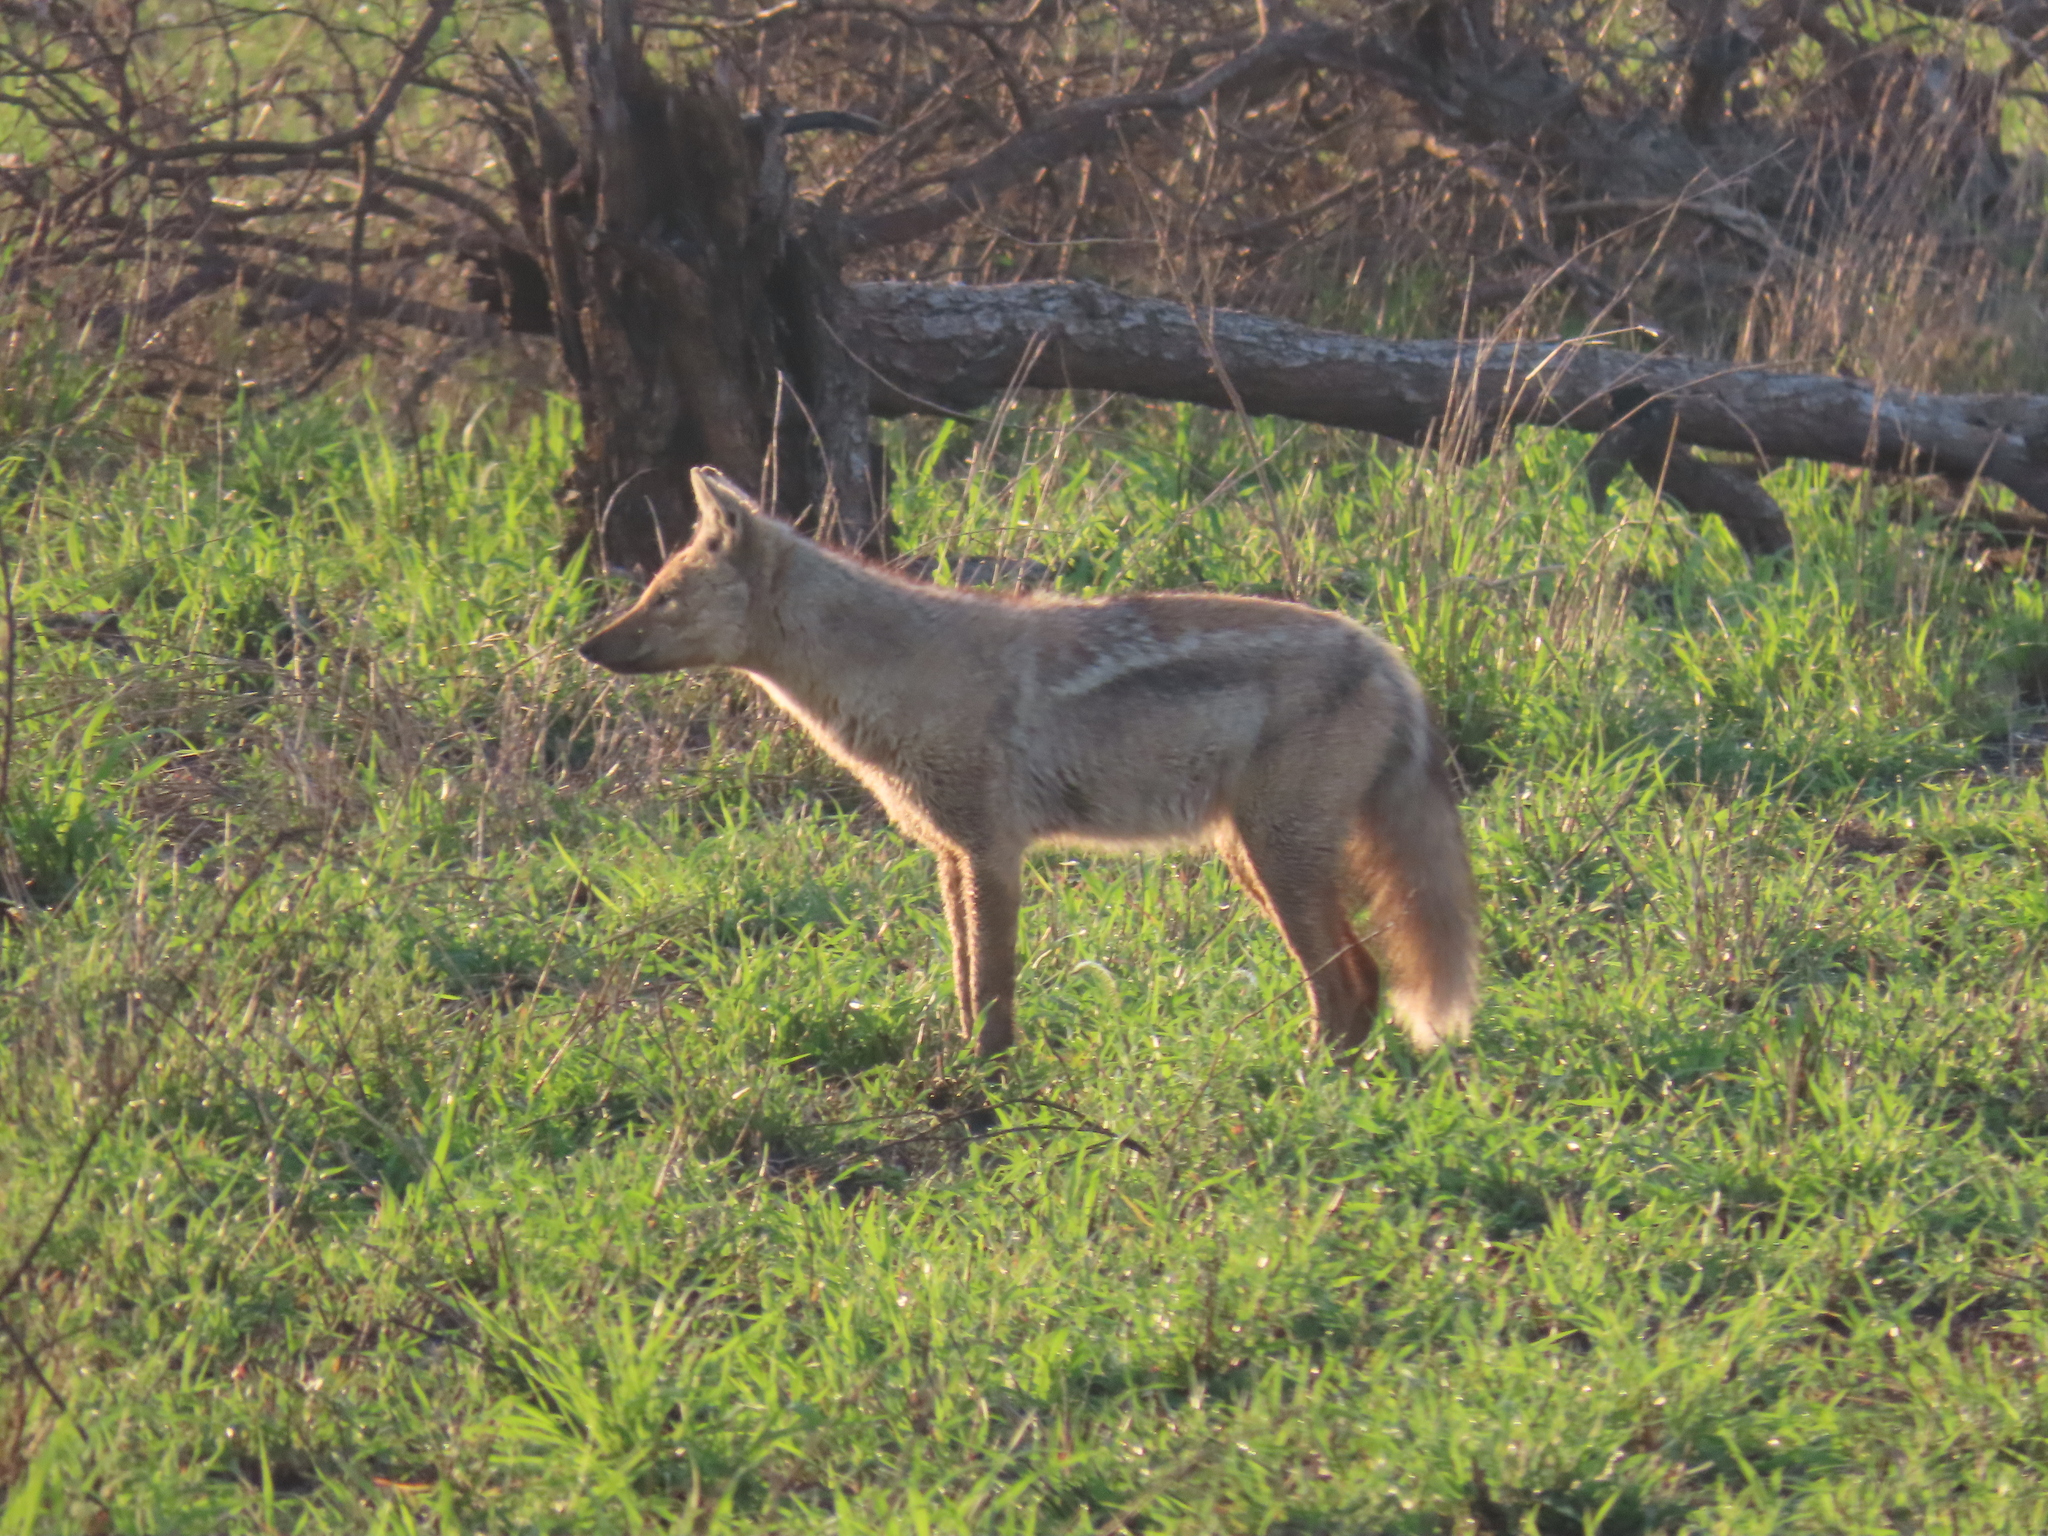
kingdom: Animalia
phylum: Chordata
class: Mammalia
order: Carnivora
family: Canidae
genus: Lupulella
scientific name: Lupulella
